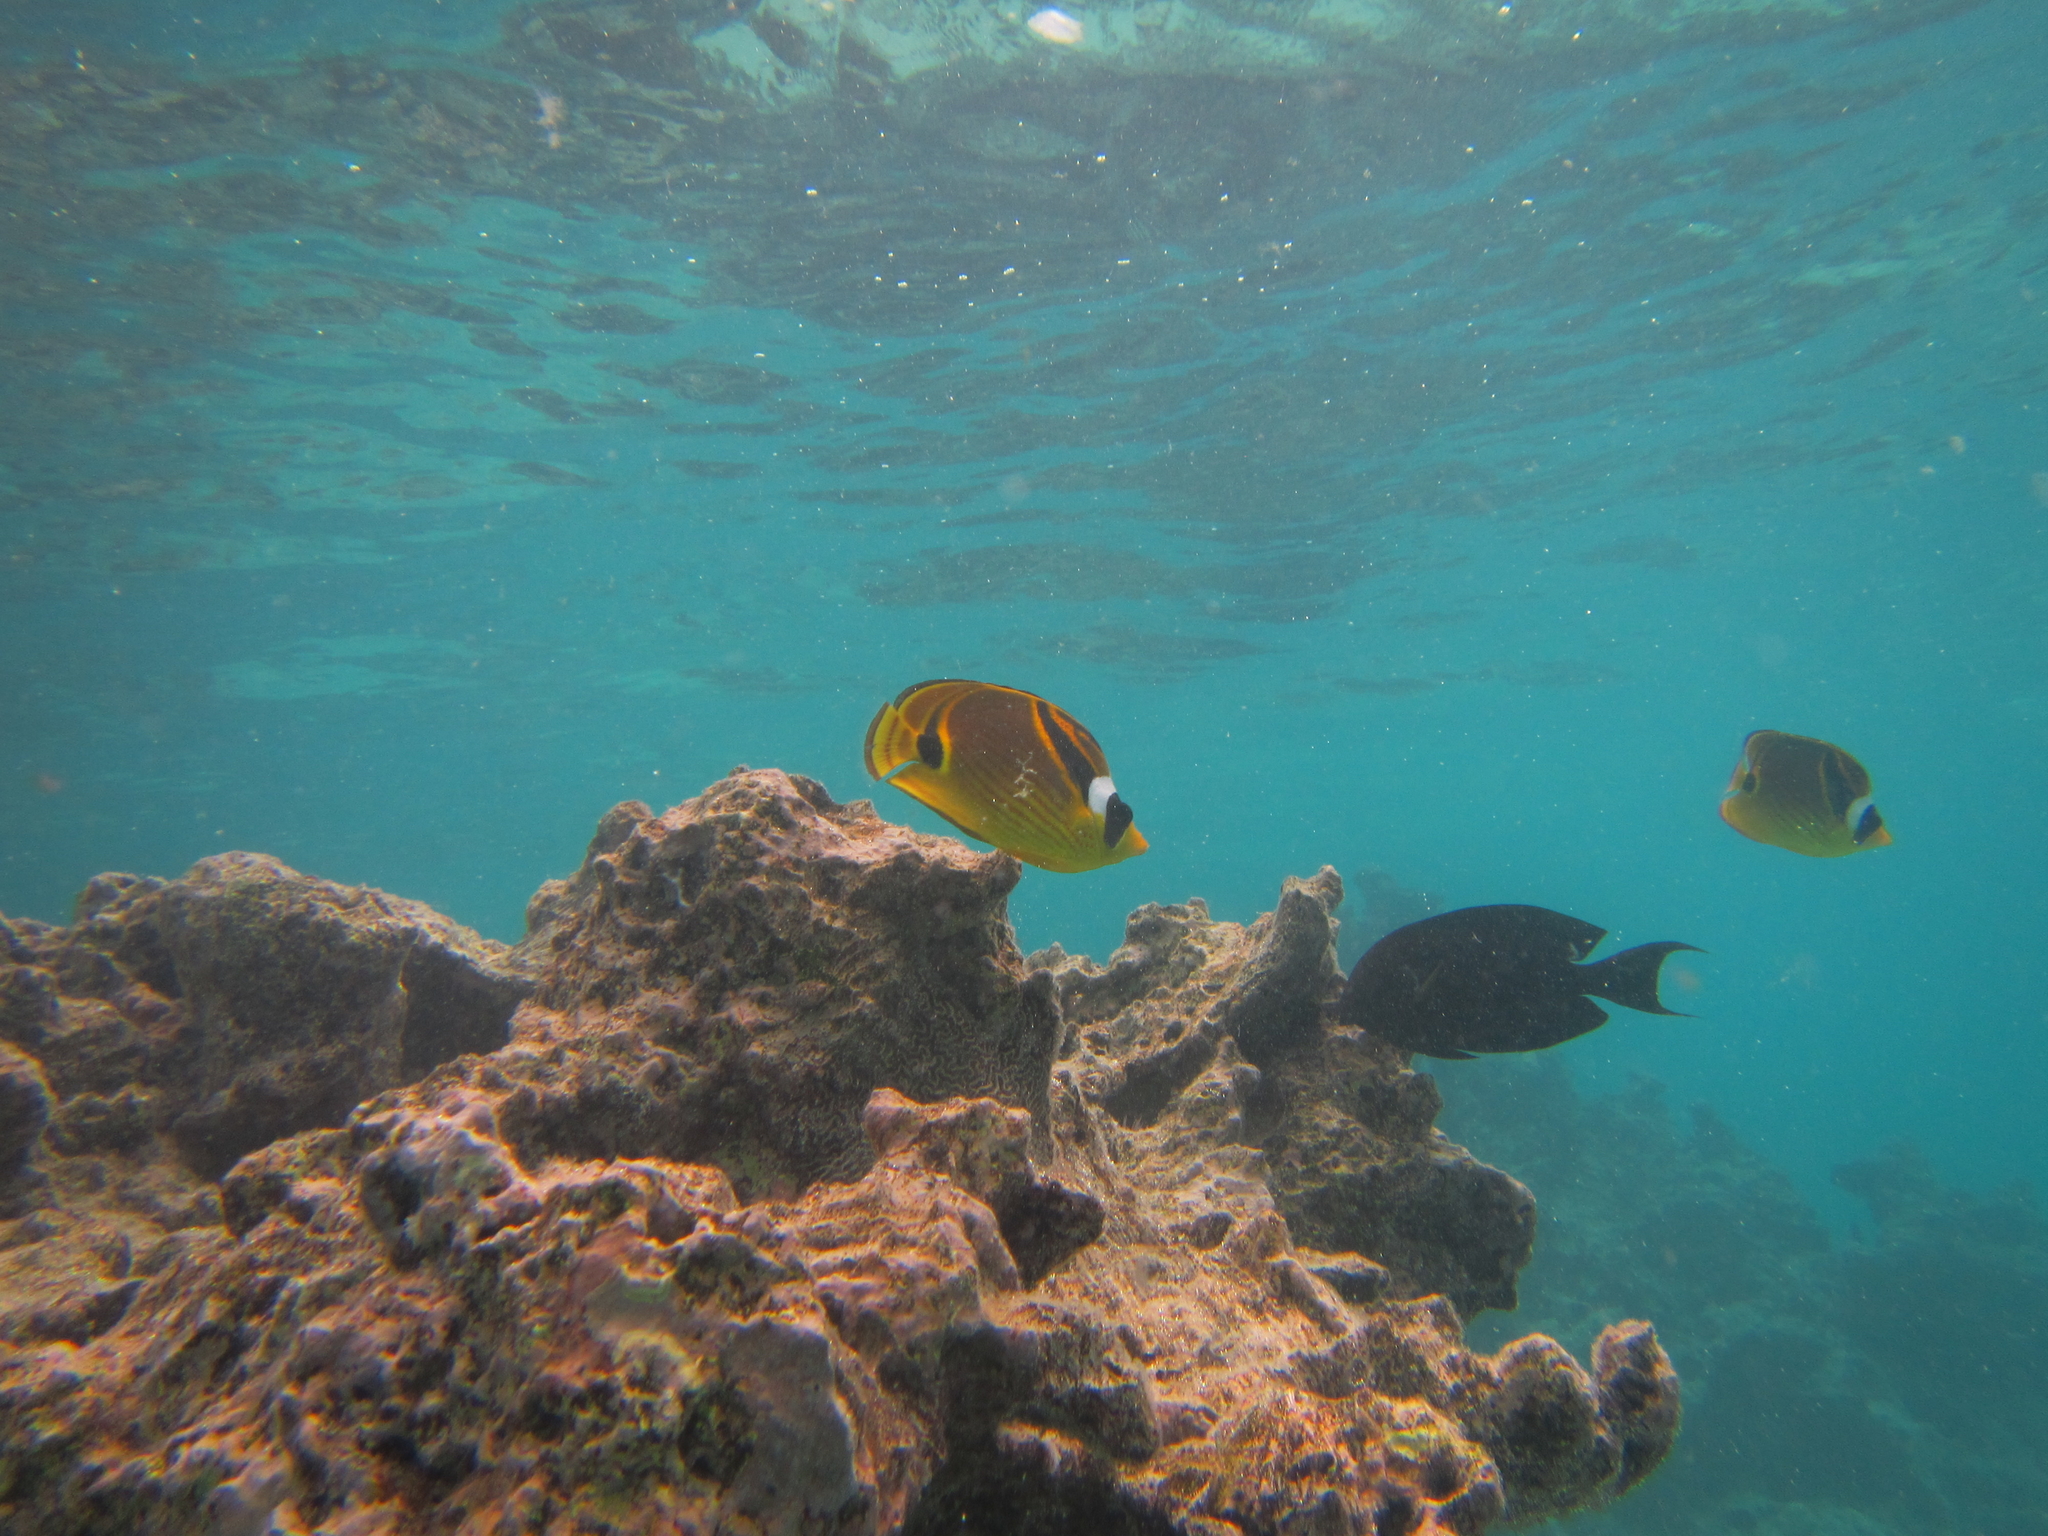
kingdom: Animalia
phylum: Chordata
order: Perciformes
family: Chaetodontidae
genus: Chaetodon
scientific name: Chaetodon lunula
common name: Raccoon butterflyfish
